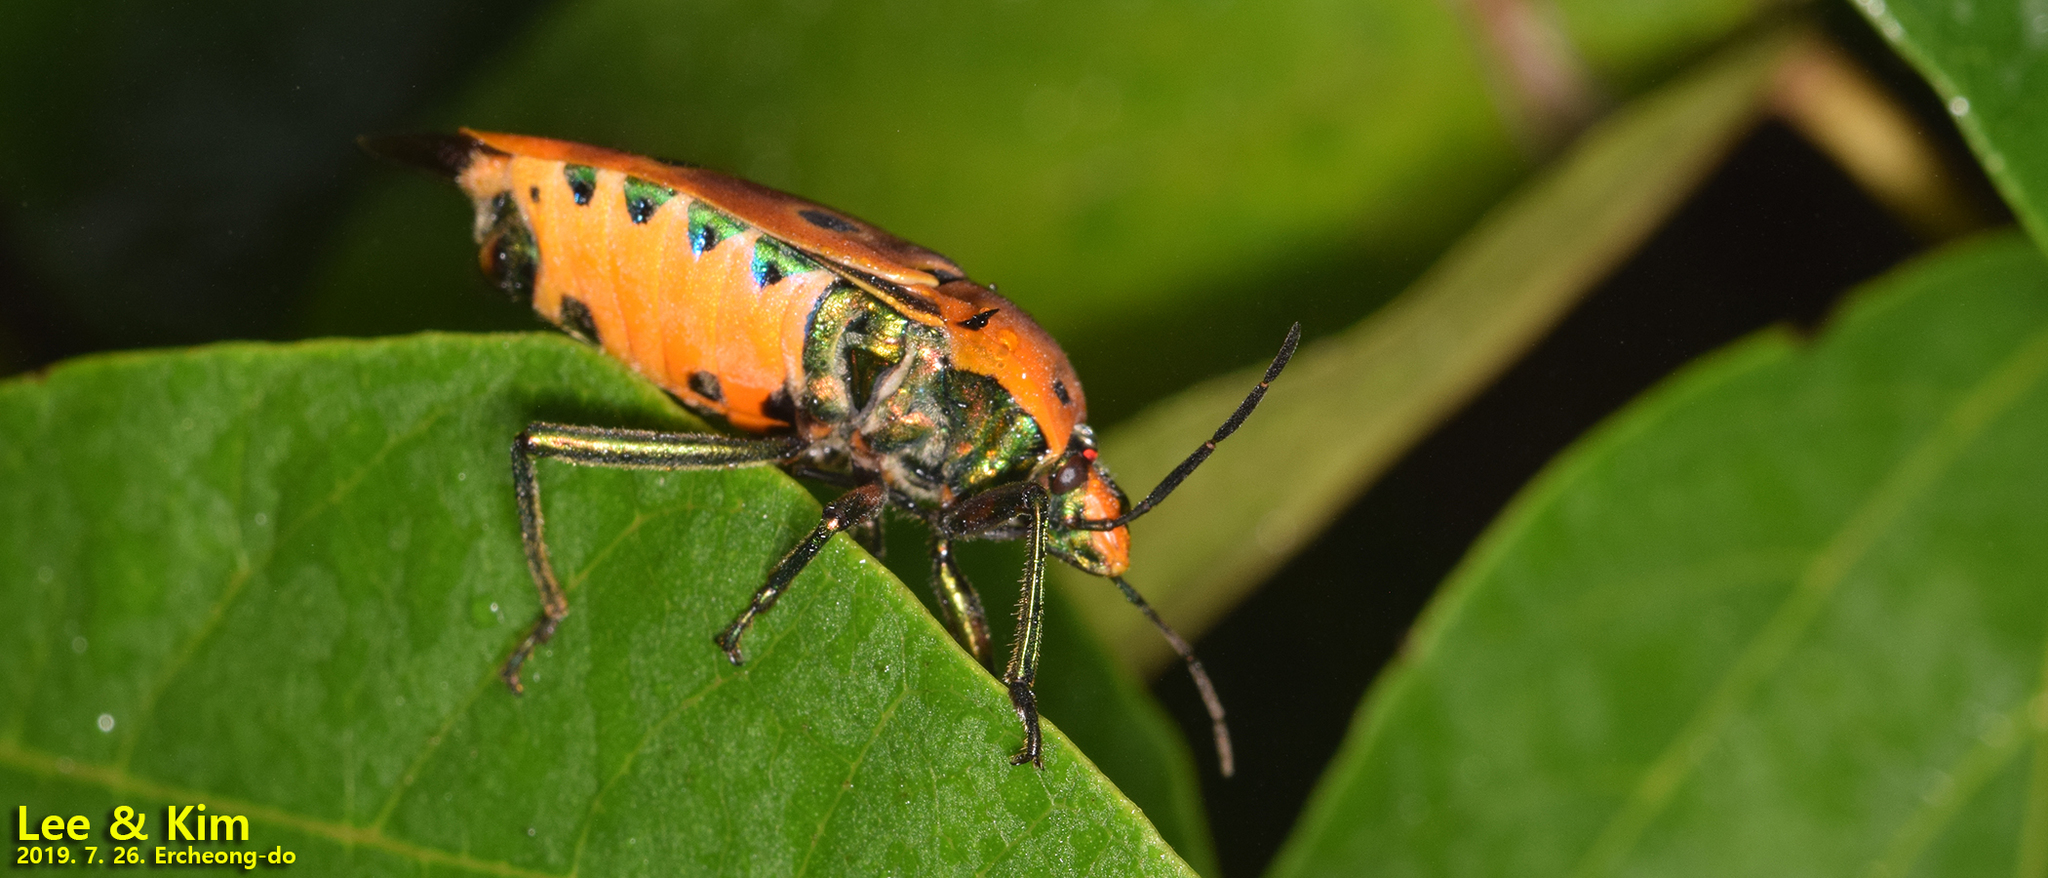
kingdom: Animalia
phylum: Arthropoda
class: Insecta
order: Hemiptera
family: Scutelleridae
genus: Cantao
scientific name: Cantao ocellatus
